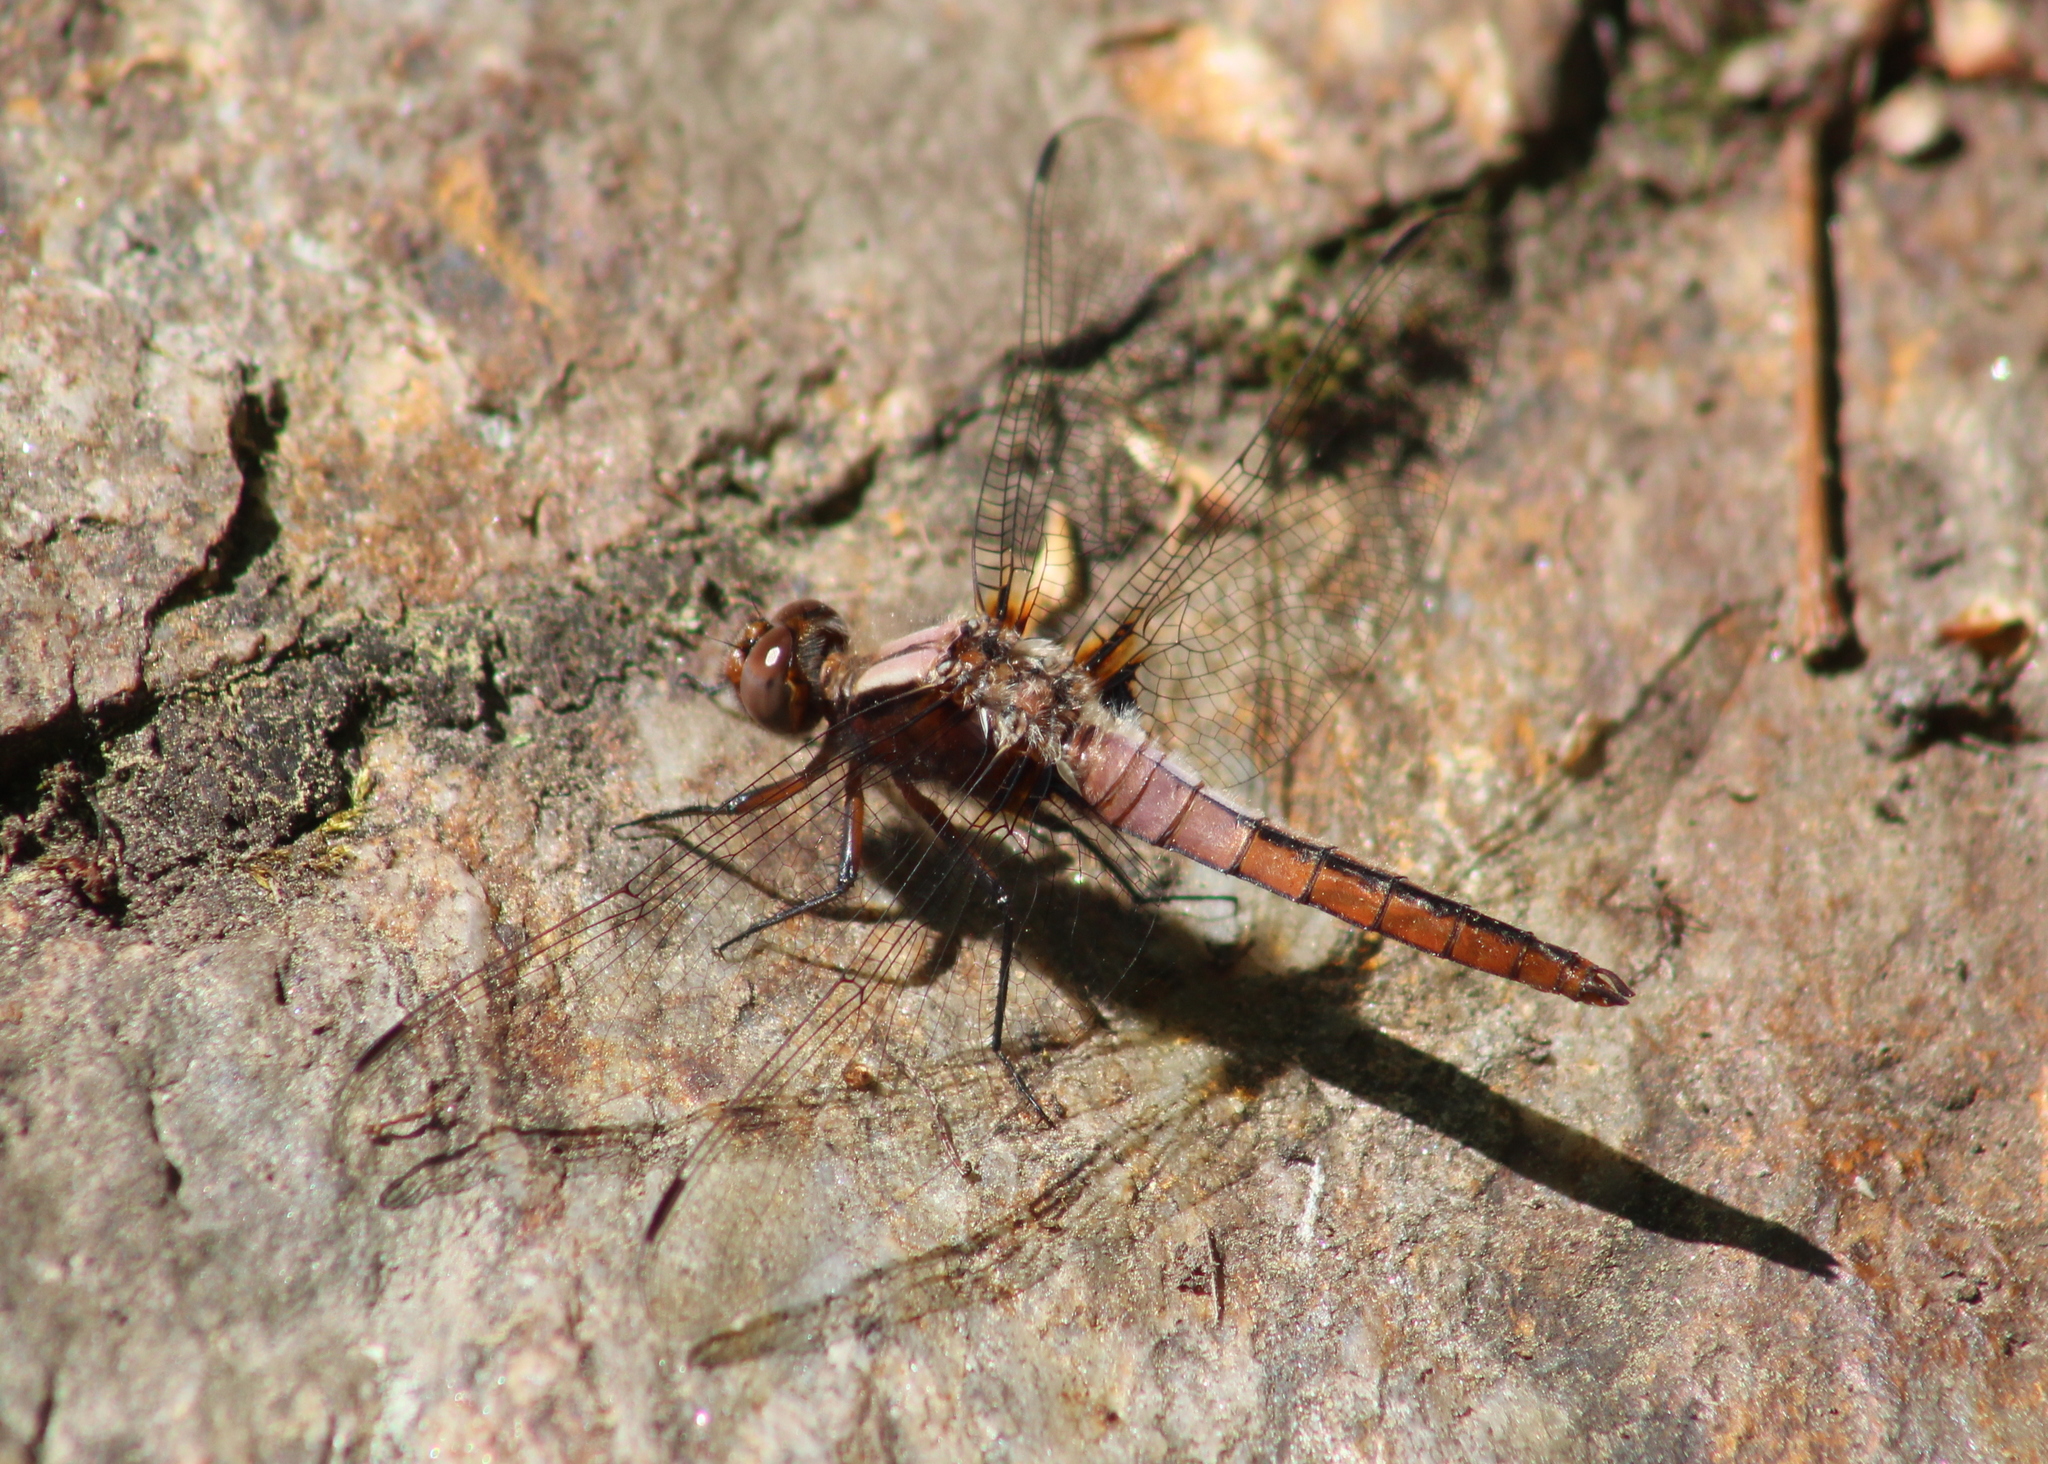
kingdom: Animalia
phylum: Arthropoda
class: Insecta
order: Odonata
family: Libellulidae
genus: Ladona
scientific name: Ladona julia
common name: Chalk-fronted corporal
